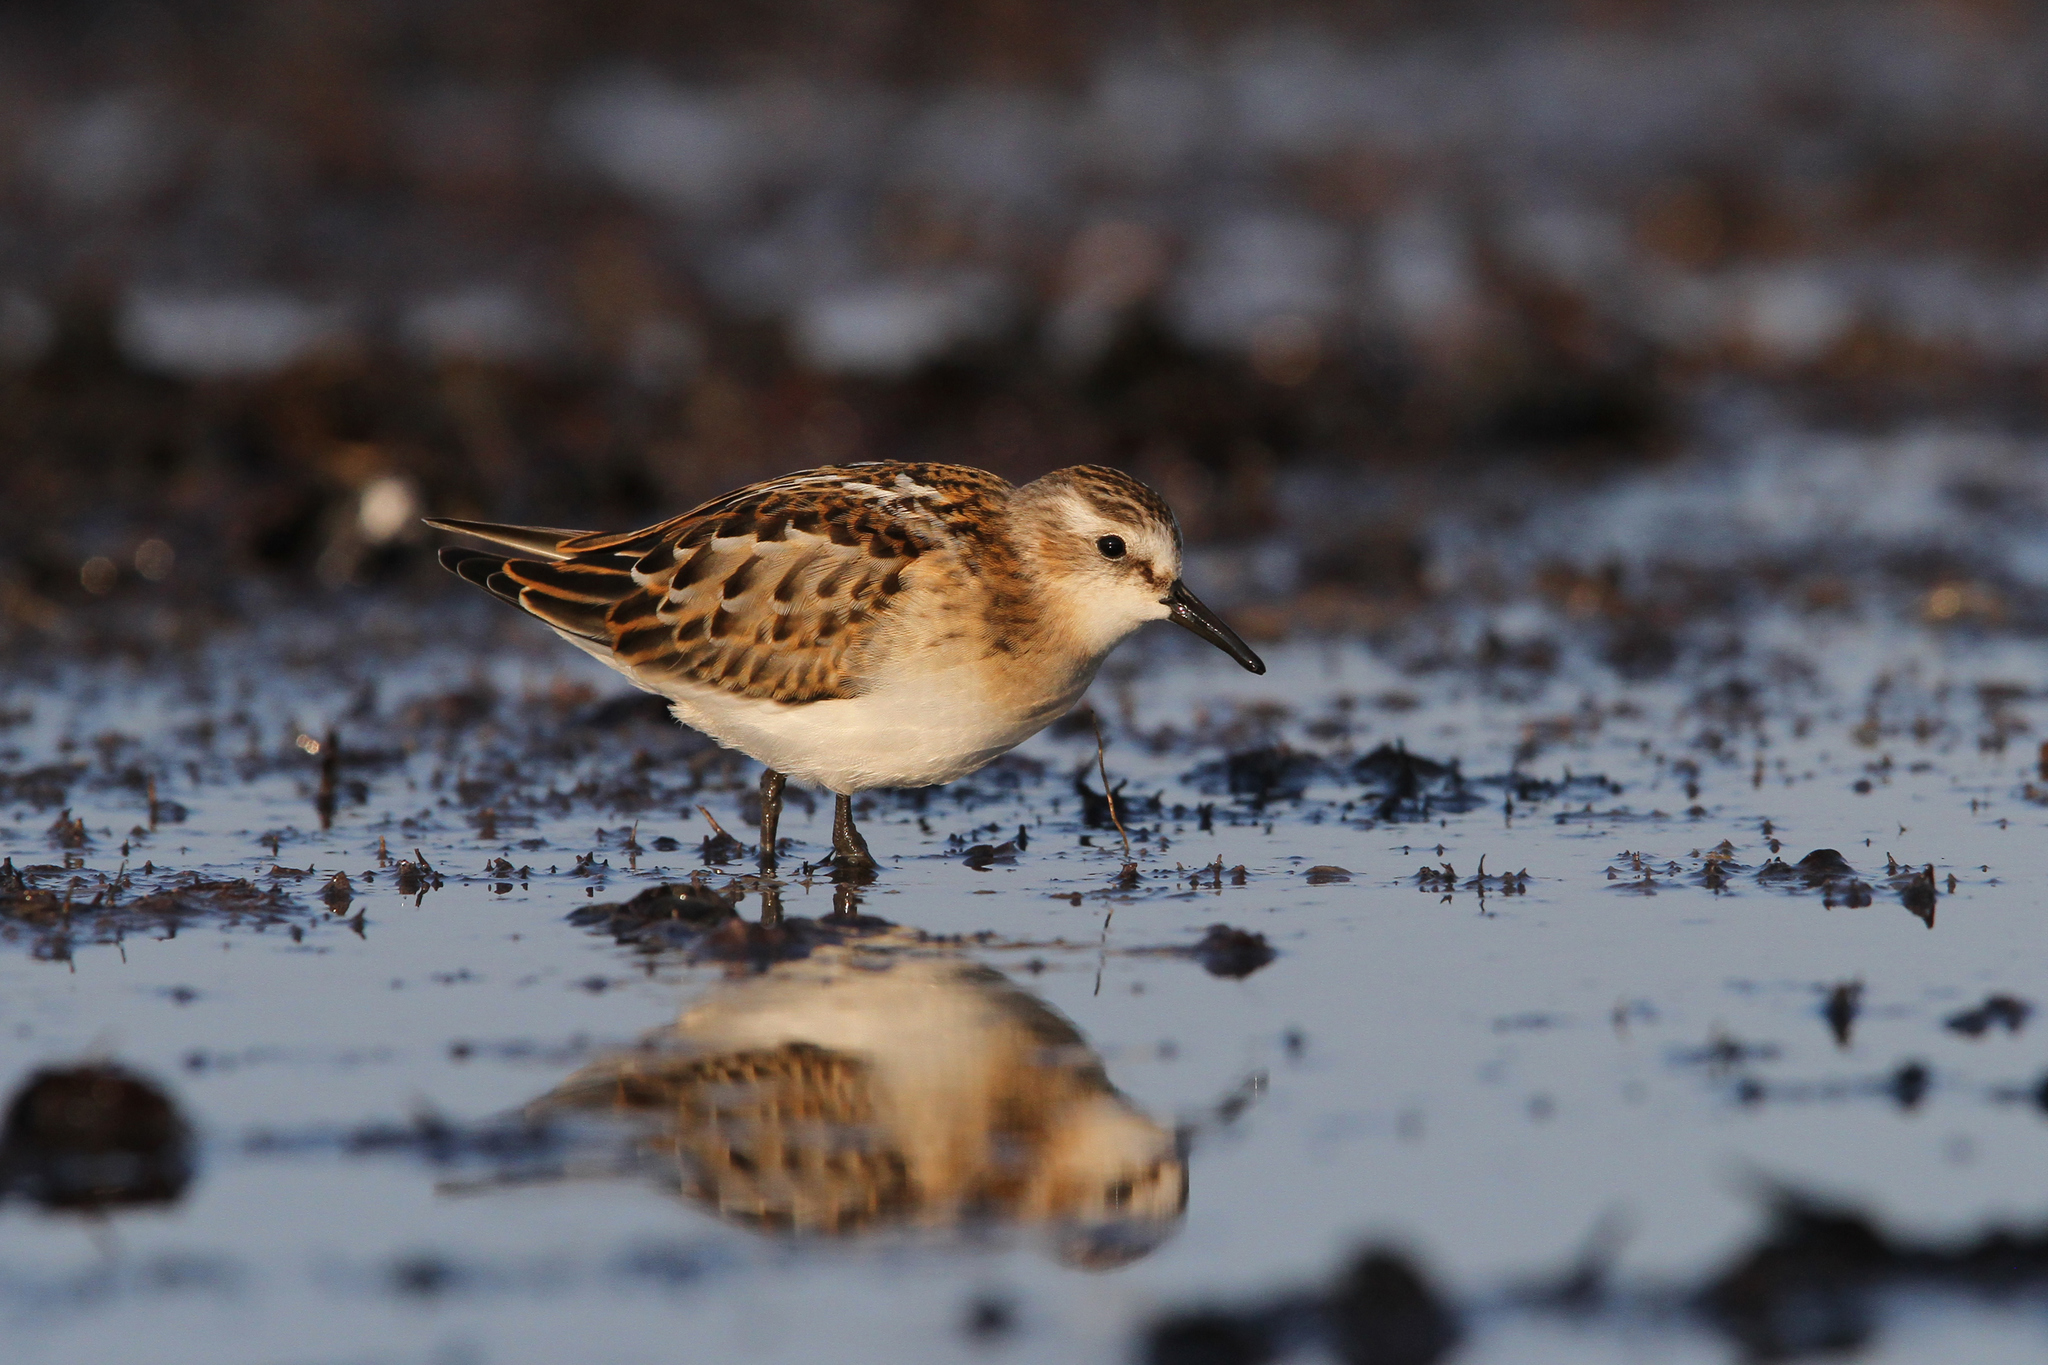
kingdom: Animalia
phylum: Chordata
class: Aves
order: Charadriiformes
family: Scolopacidae
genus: Calidris
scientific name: Calidris minuta
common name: Little stint
